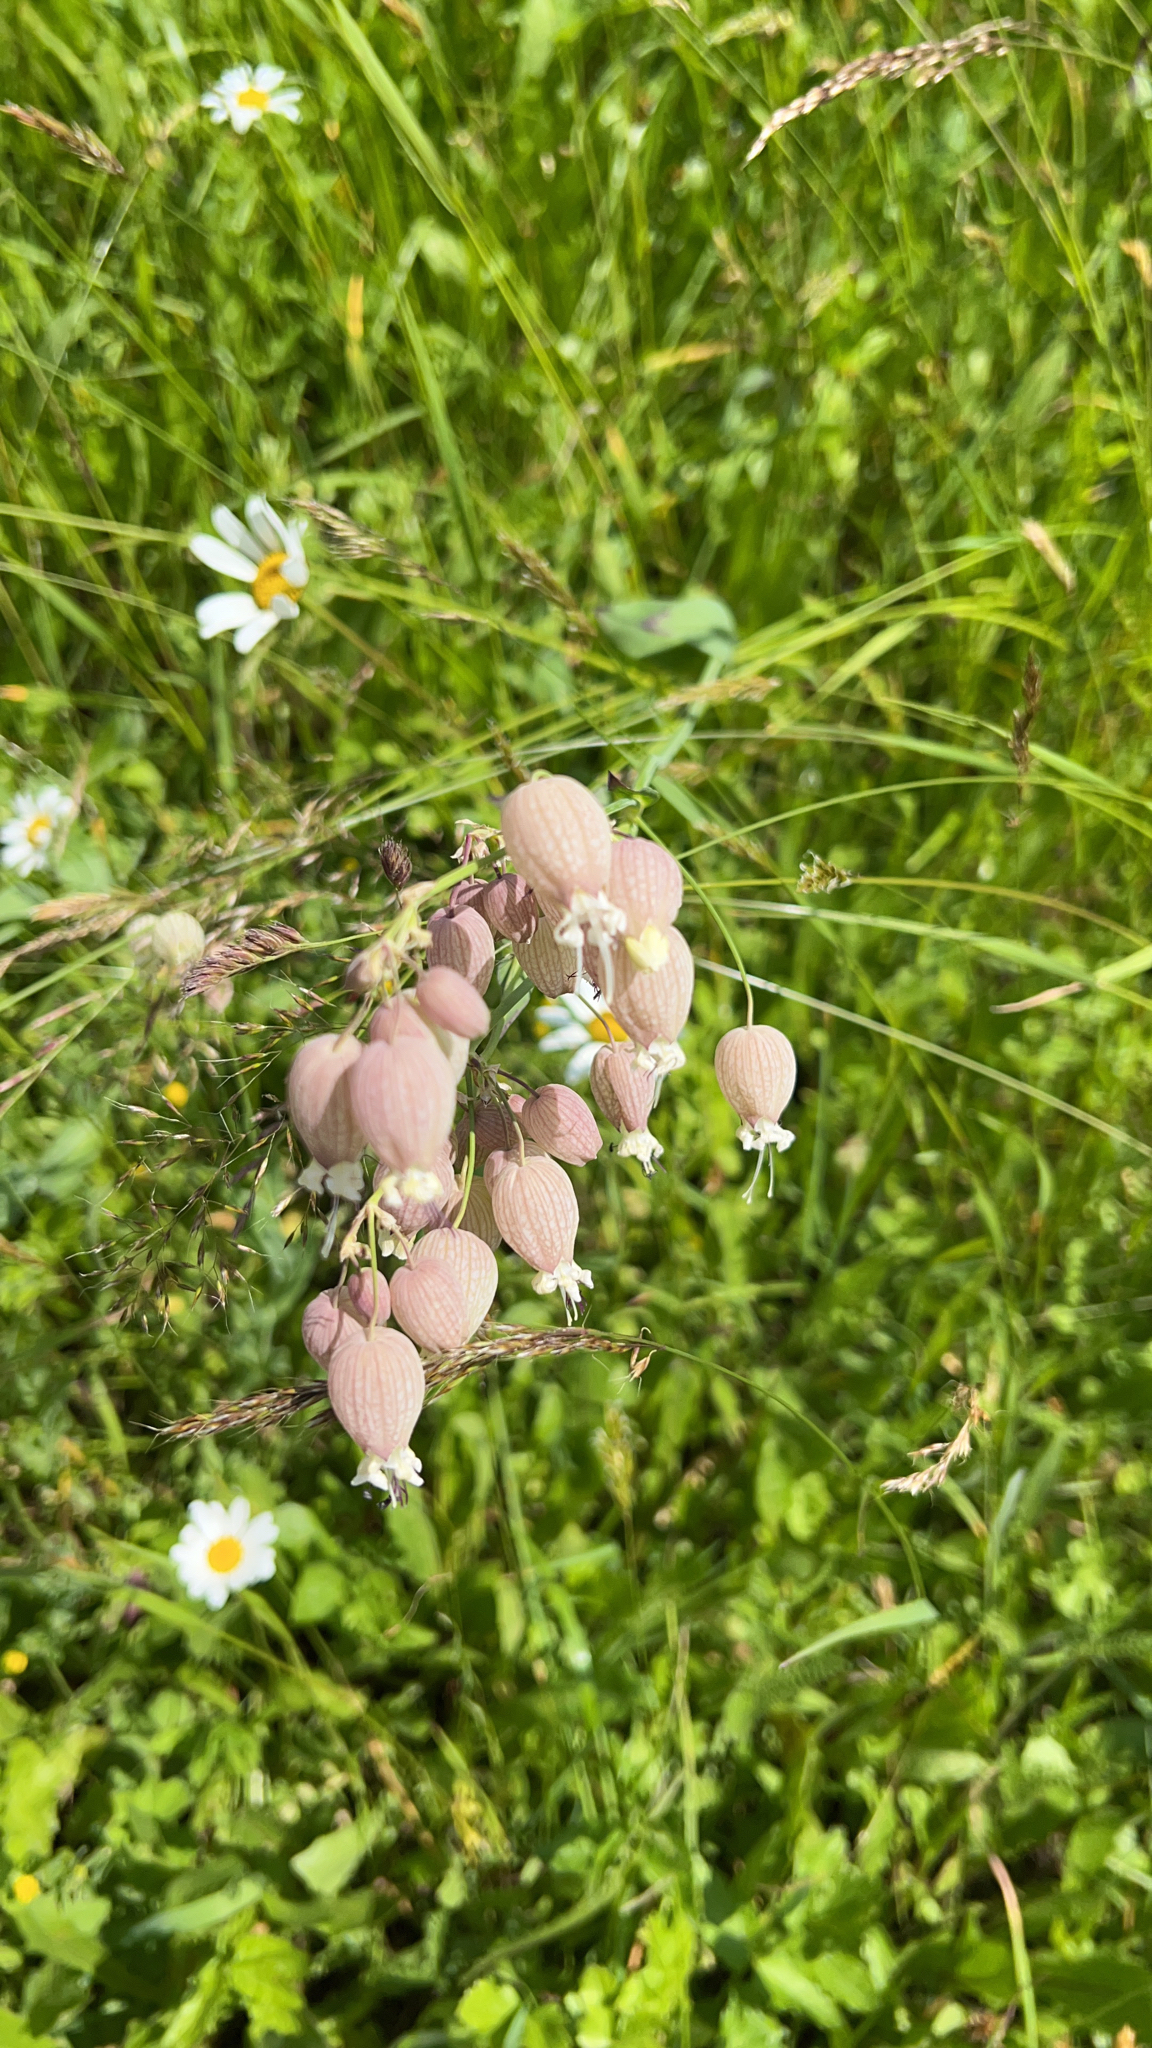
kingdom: Plantae
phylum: Tracheophyta
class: Magnoliopsida
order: Caryophyllales
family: Caryophyllaceae
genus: Silene
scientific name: Silene vulgaris
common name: Bladder campion
